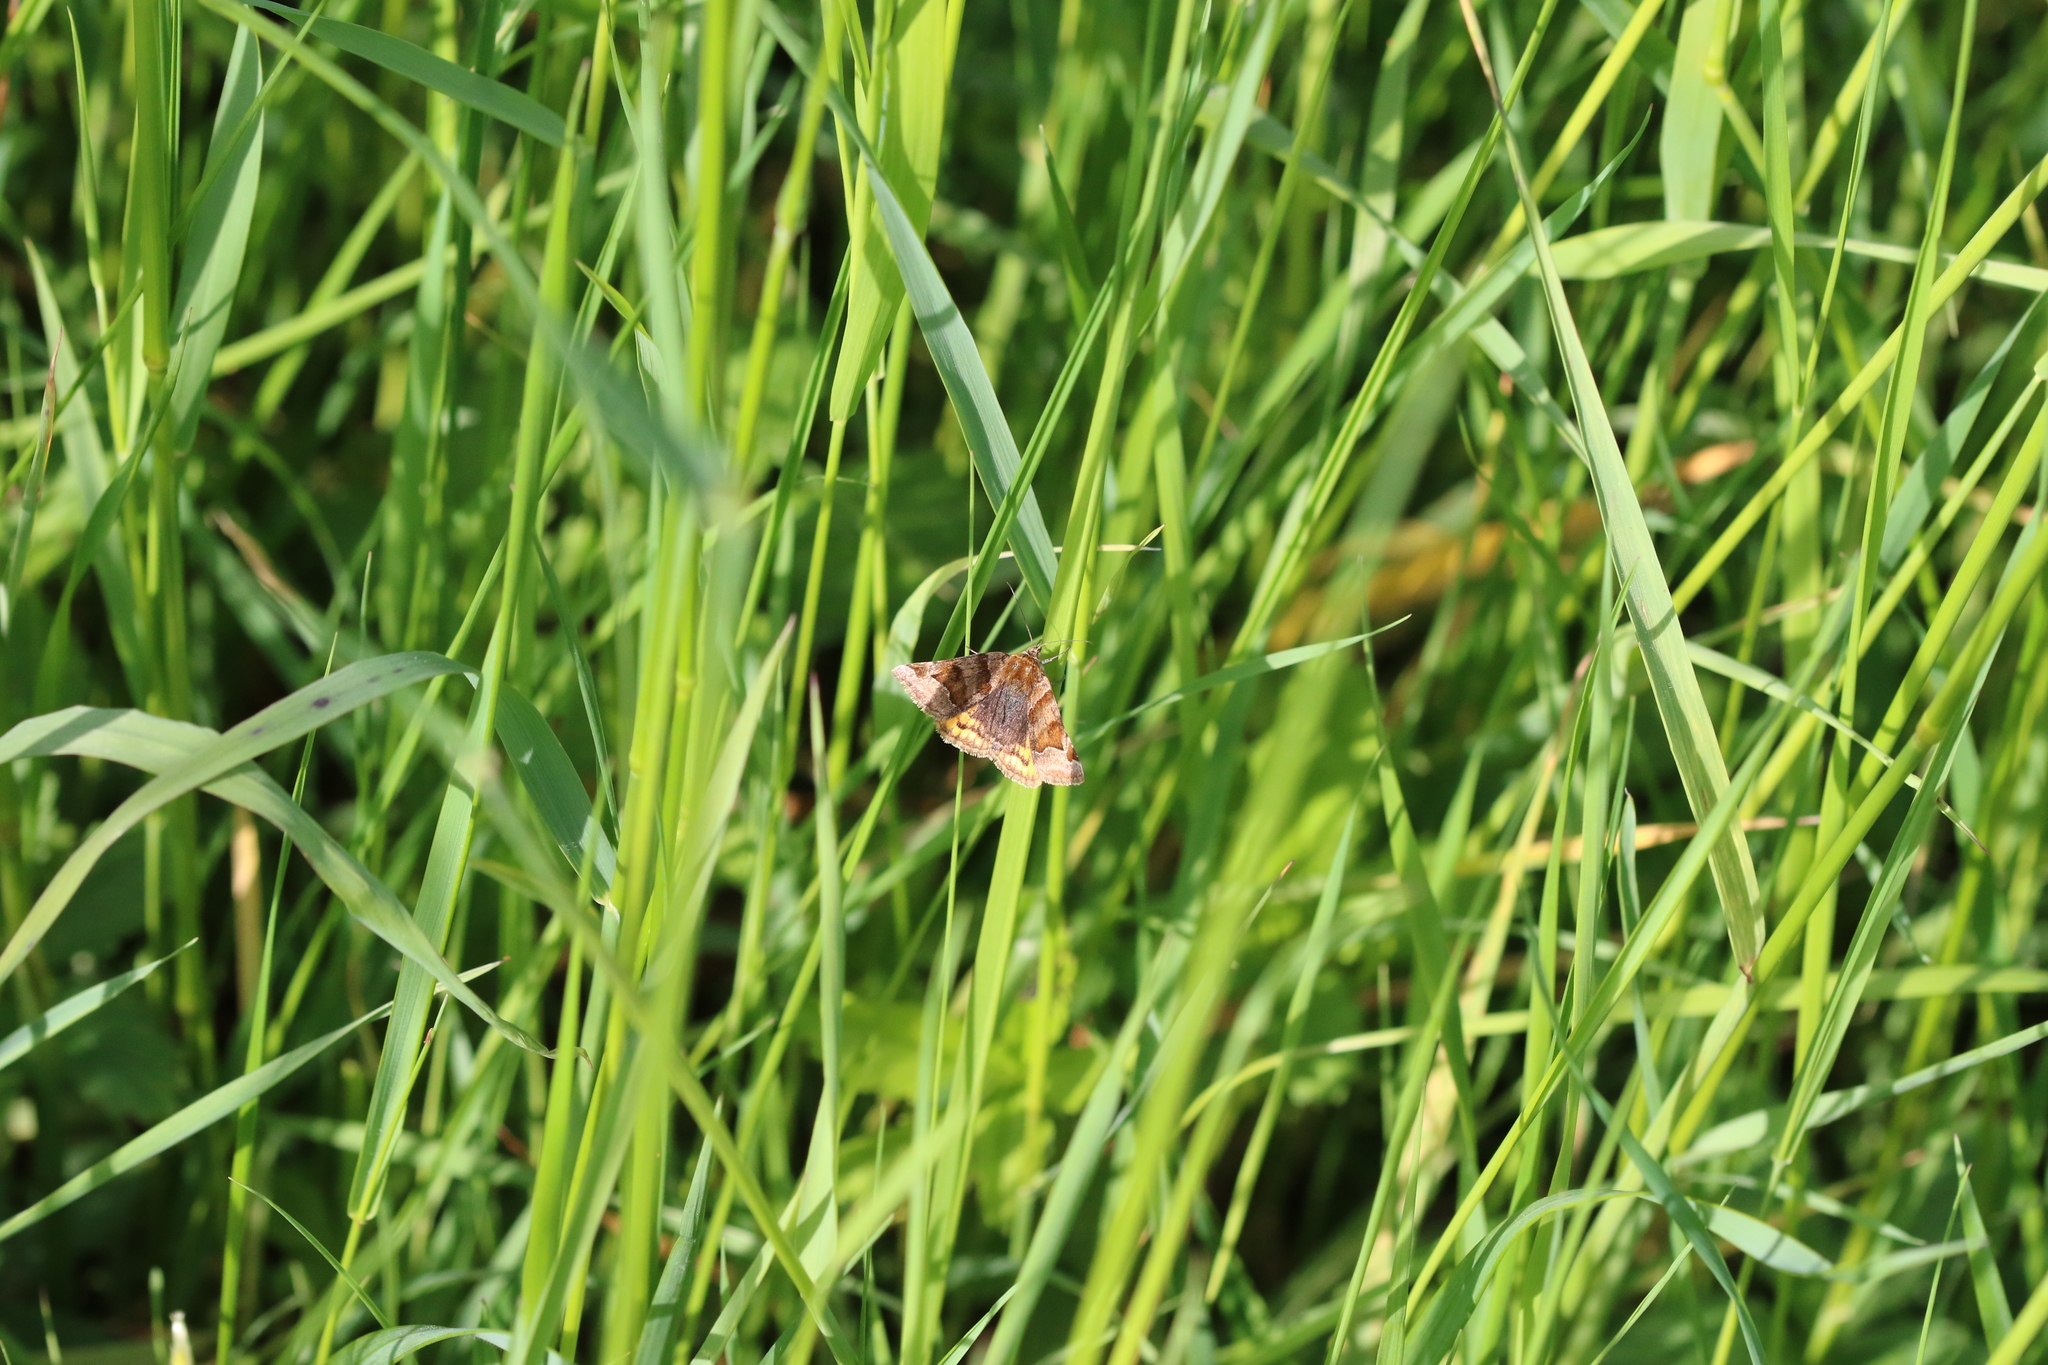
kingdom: Animalia
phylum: Arthropoda
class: Insecta
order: Lepidoptera
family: Erebidae
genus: Euclidia
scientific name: Euclidia glyphica
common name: Burnet companion
